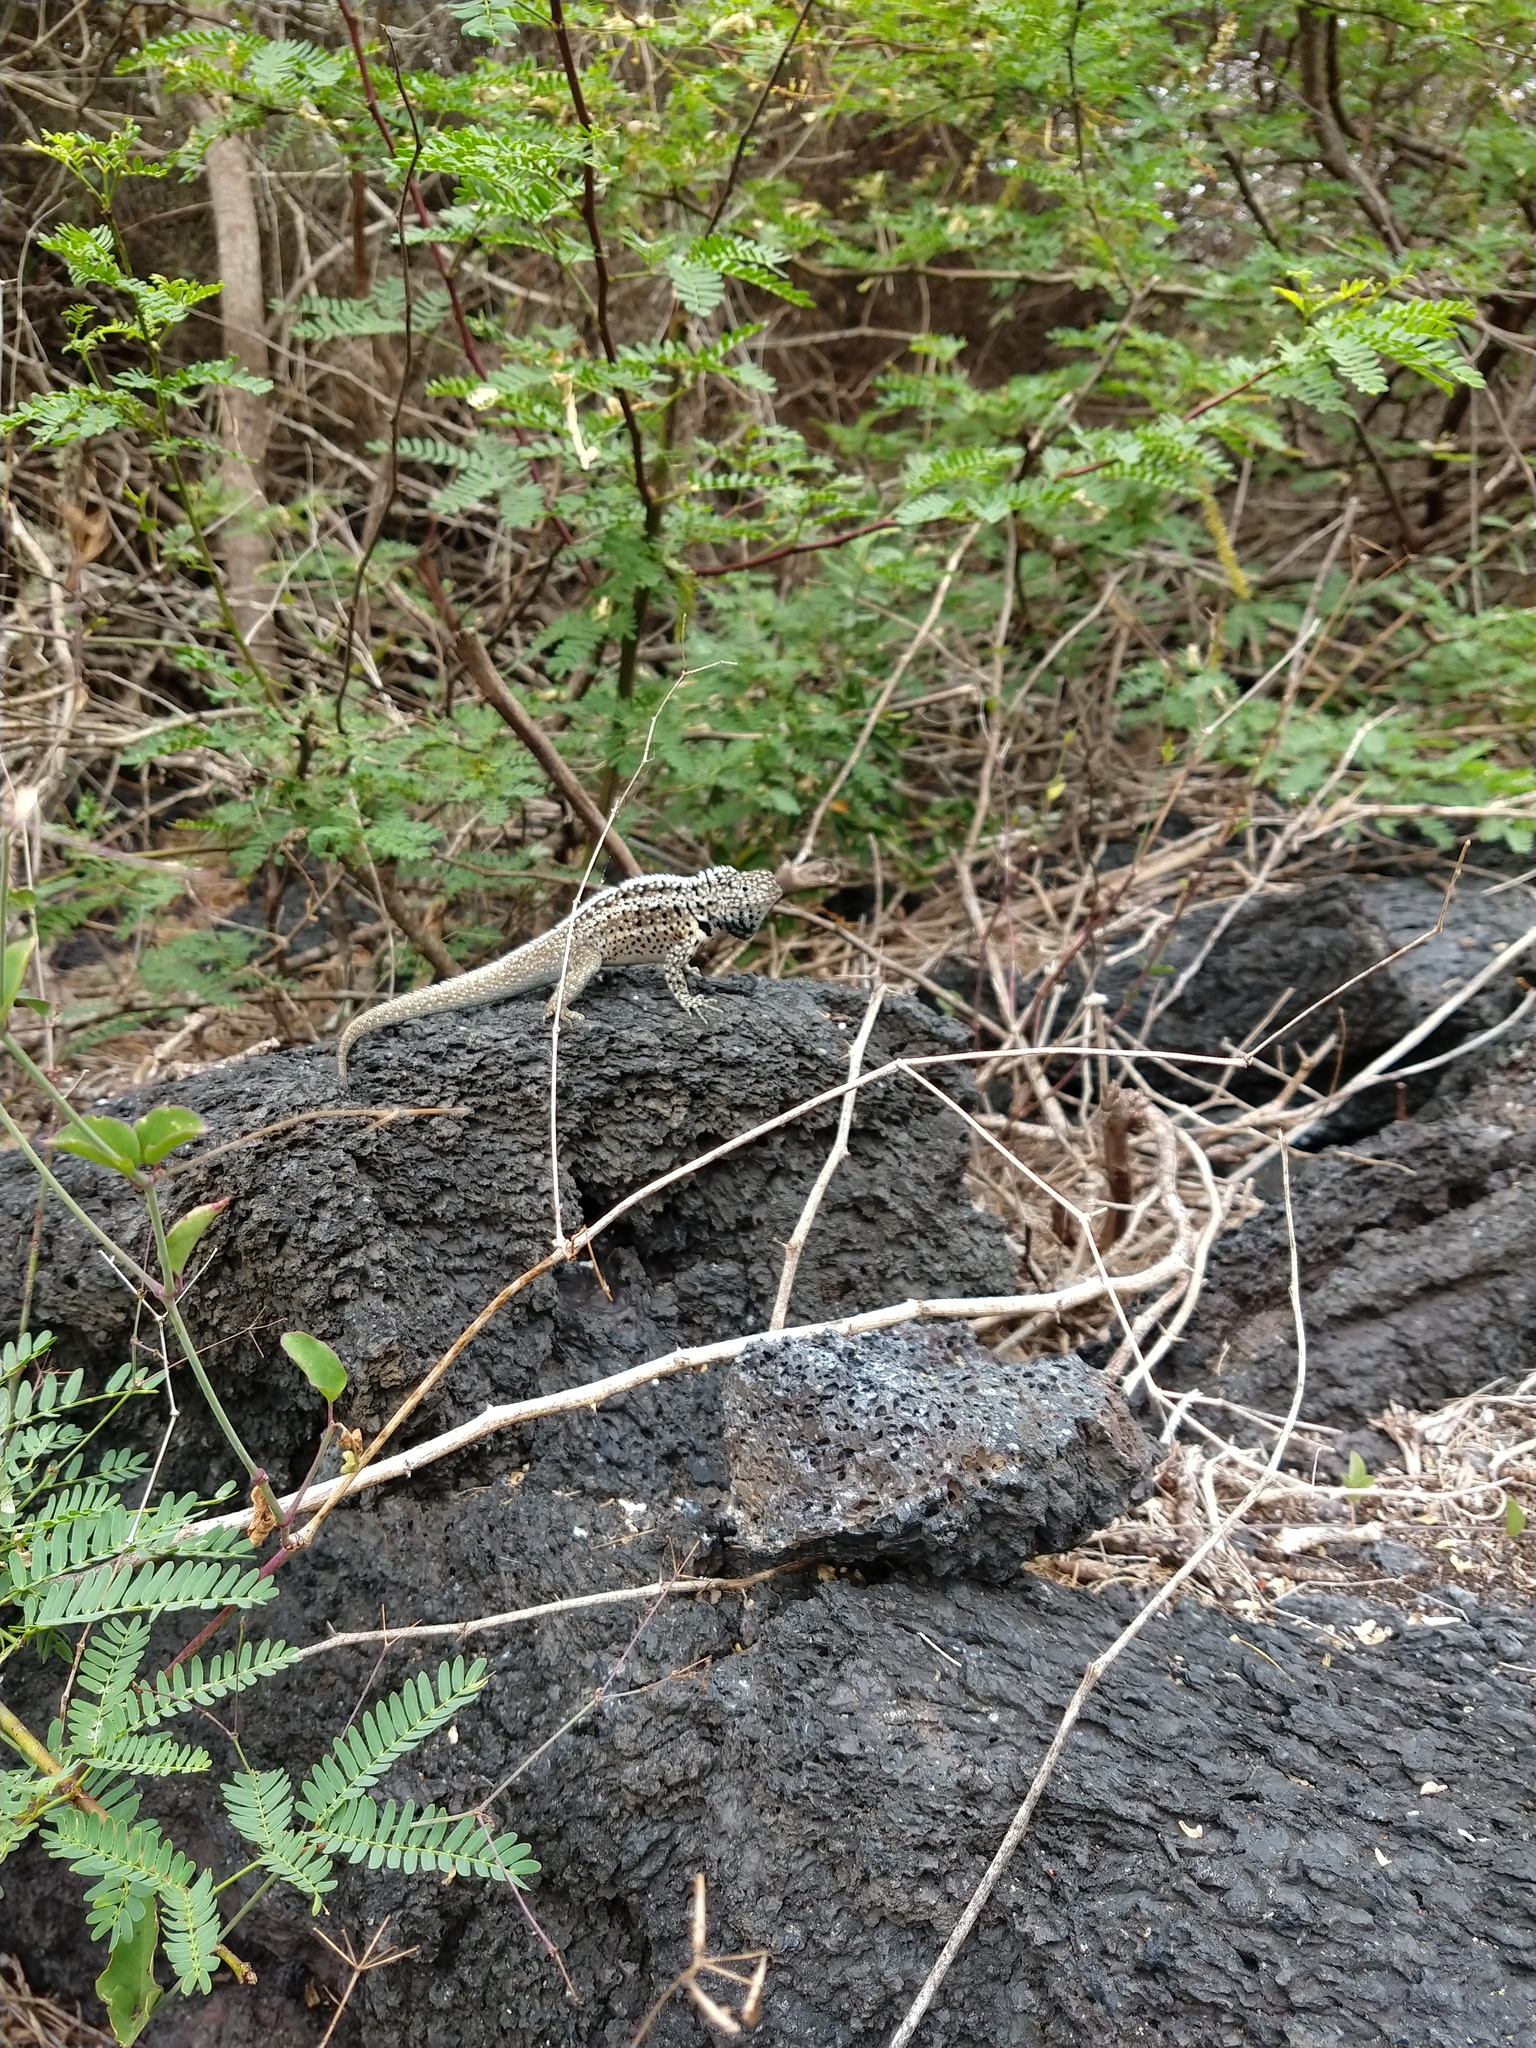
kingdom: Animalia
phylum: Chordata
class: Squamata
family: Tropiduridae
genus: Microlophus
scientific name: Microlophus albemarlensis
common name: Galapagos lava lizard
